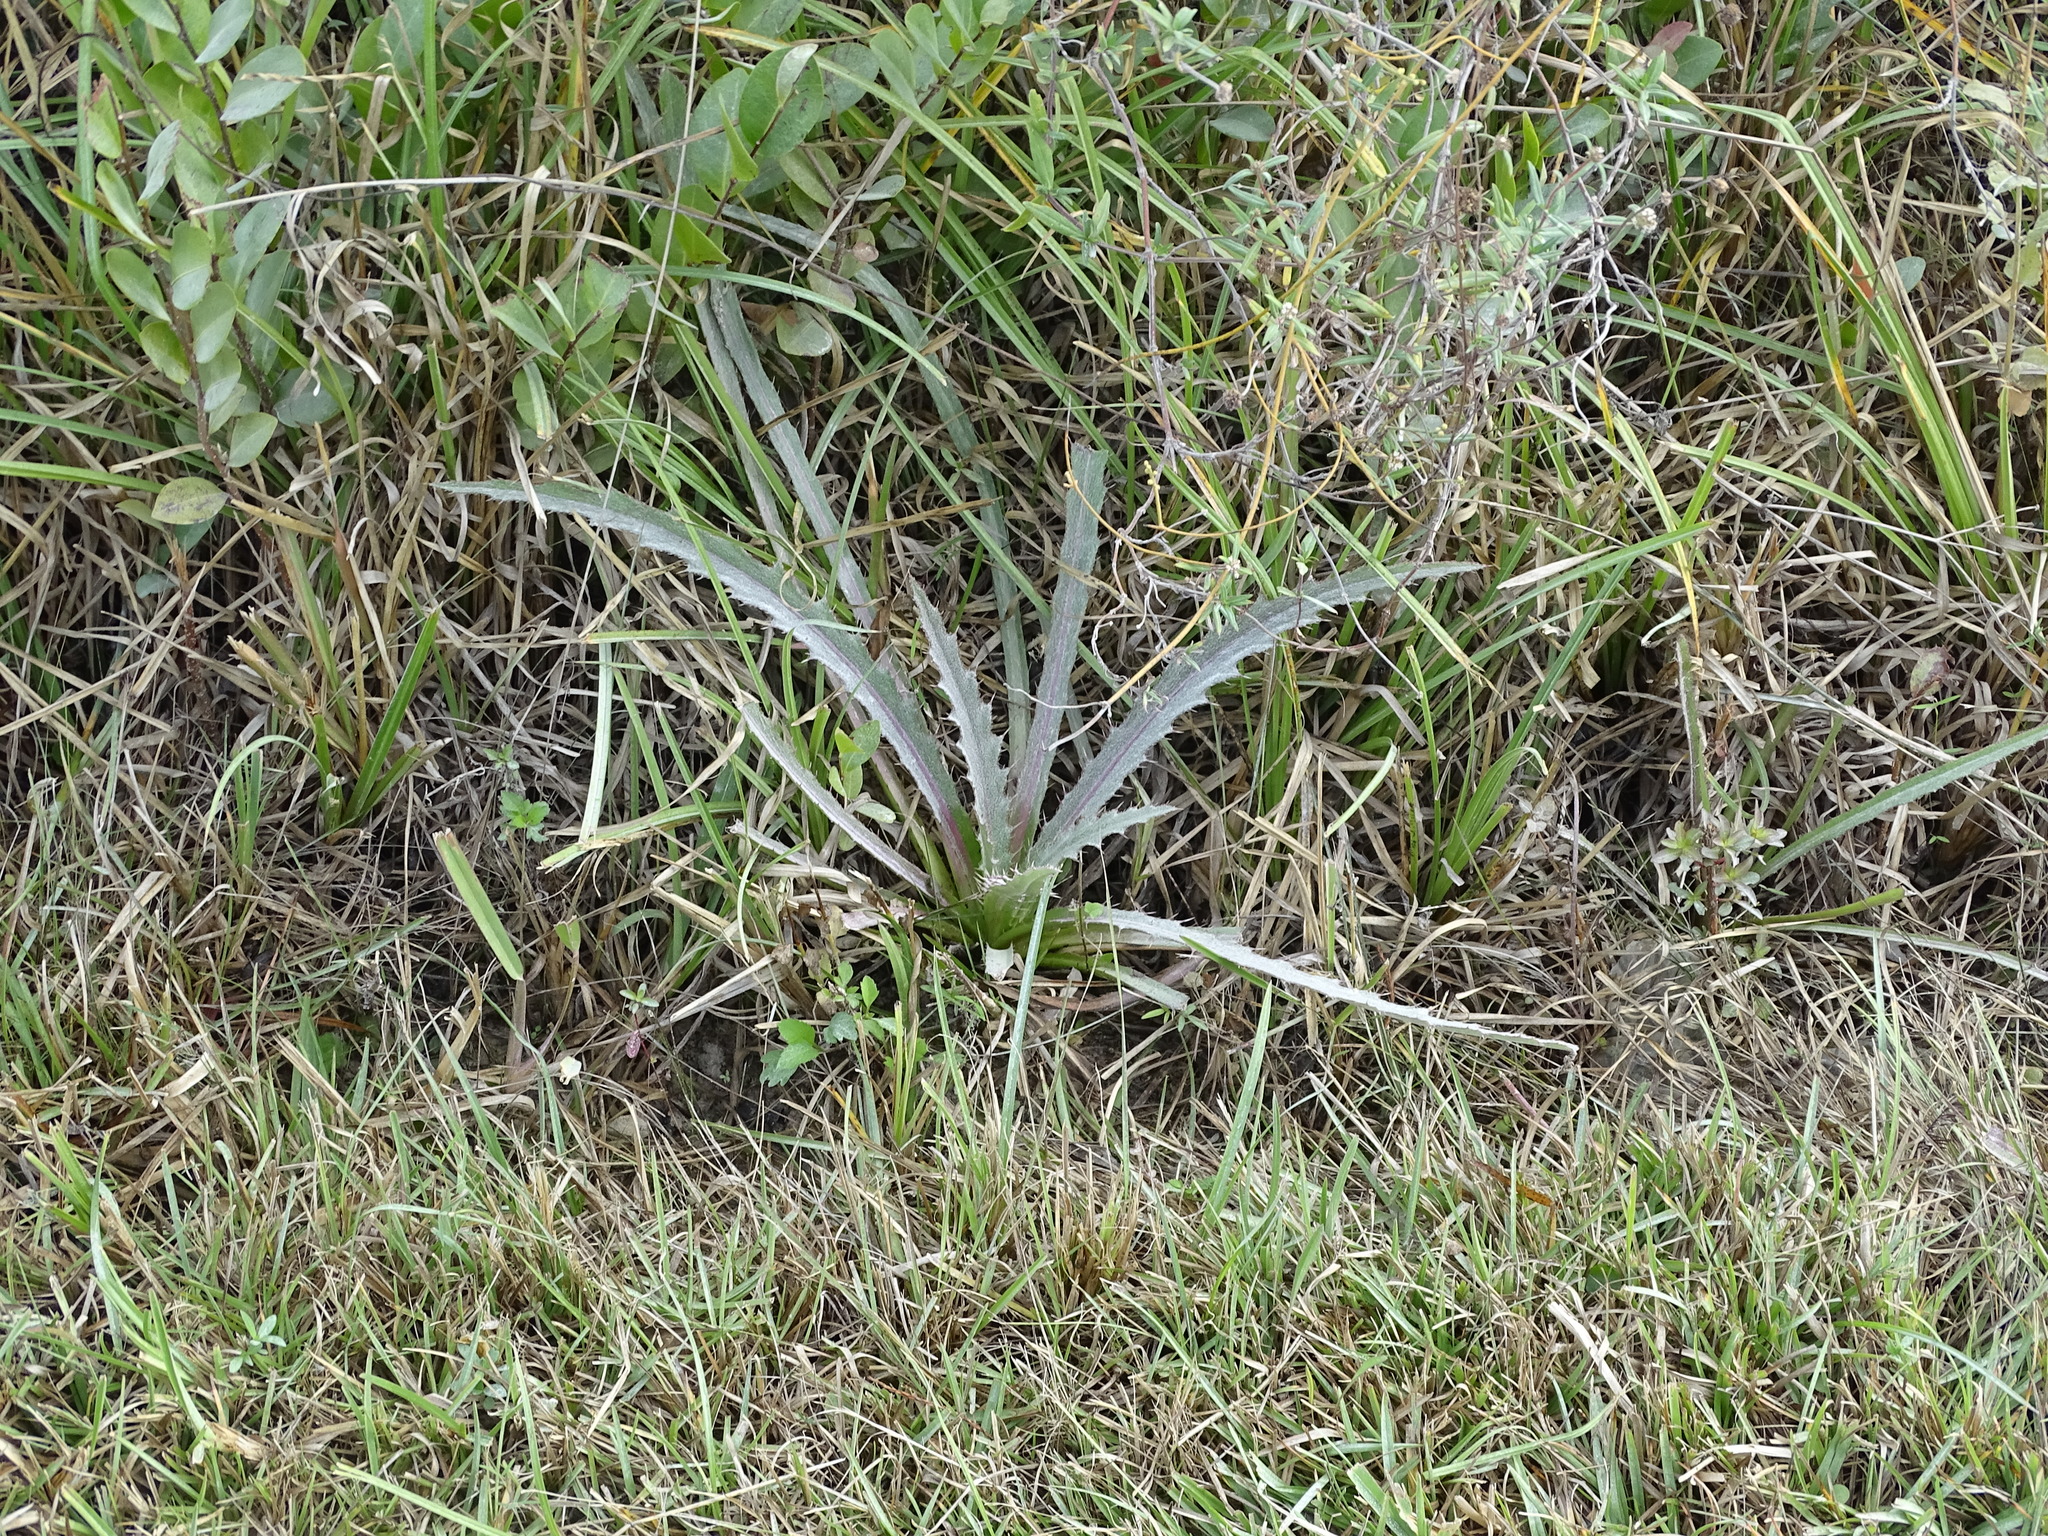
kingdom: Plantae
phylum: Tracheophyta
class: Magnoliopsida
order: Asterales
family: Asteraceae
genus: Cirsium
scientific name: Cirsium horridulum
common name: Bristly thistle
